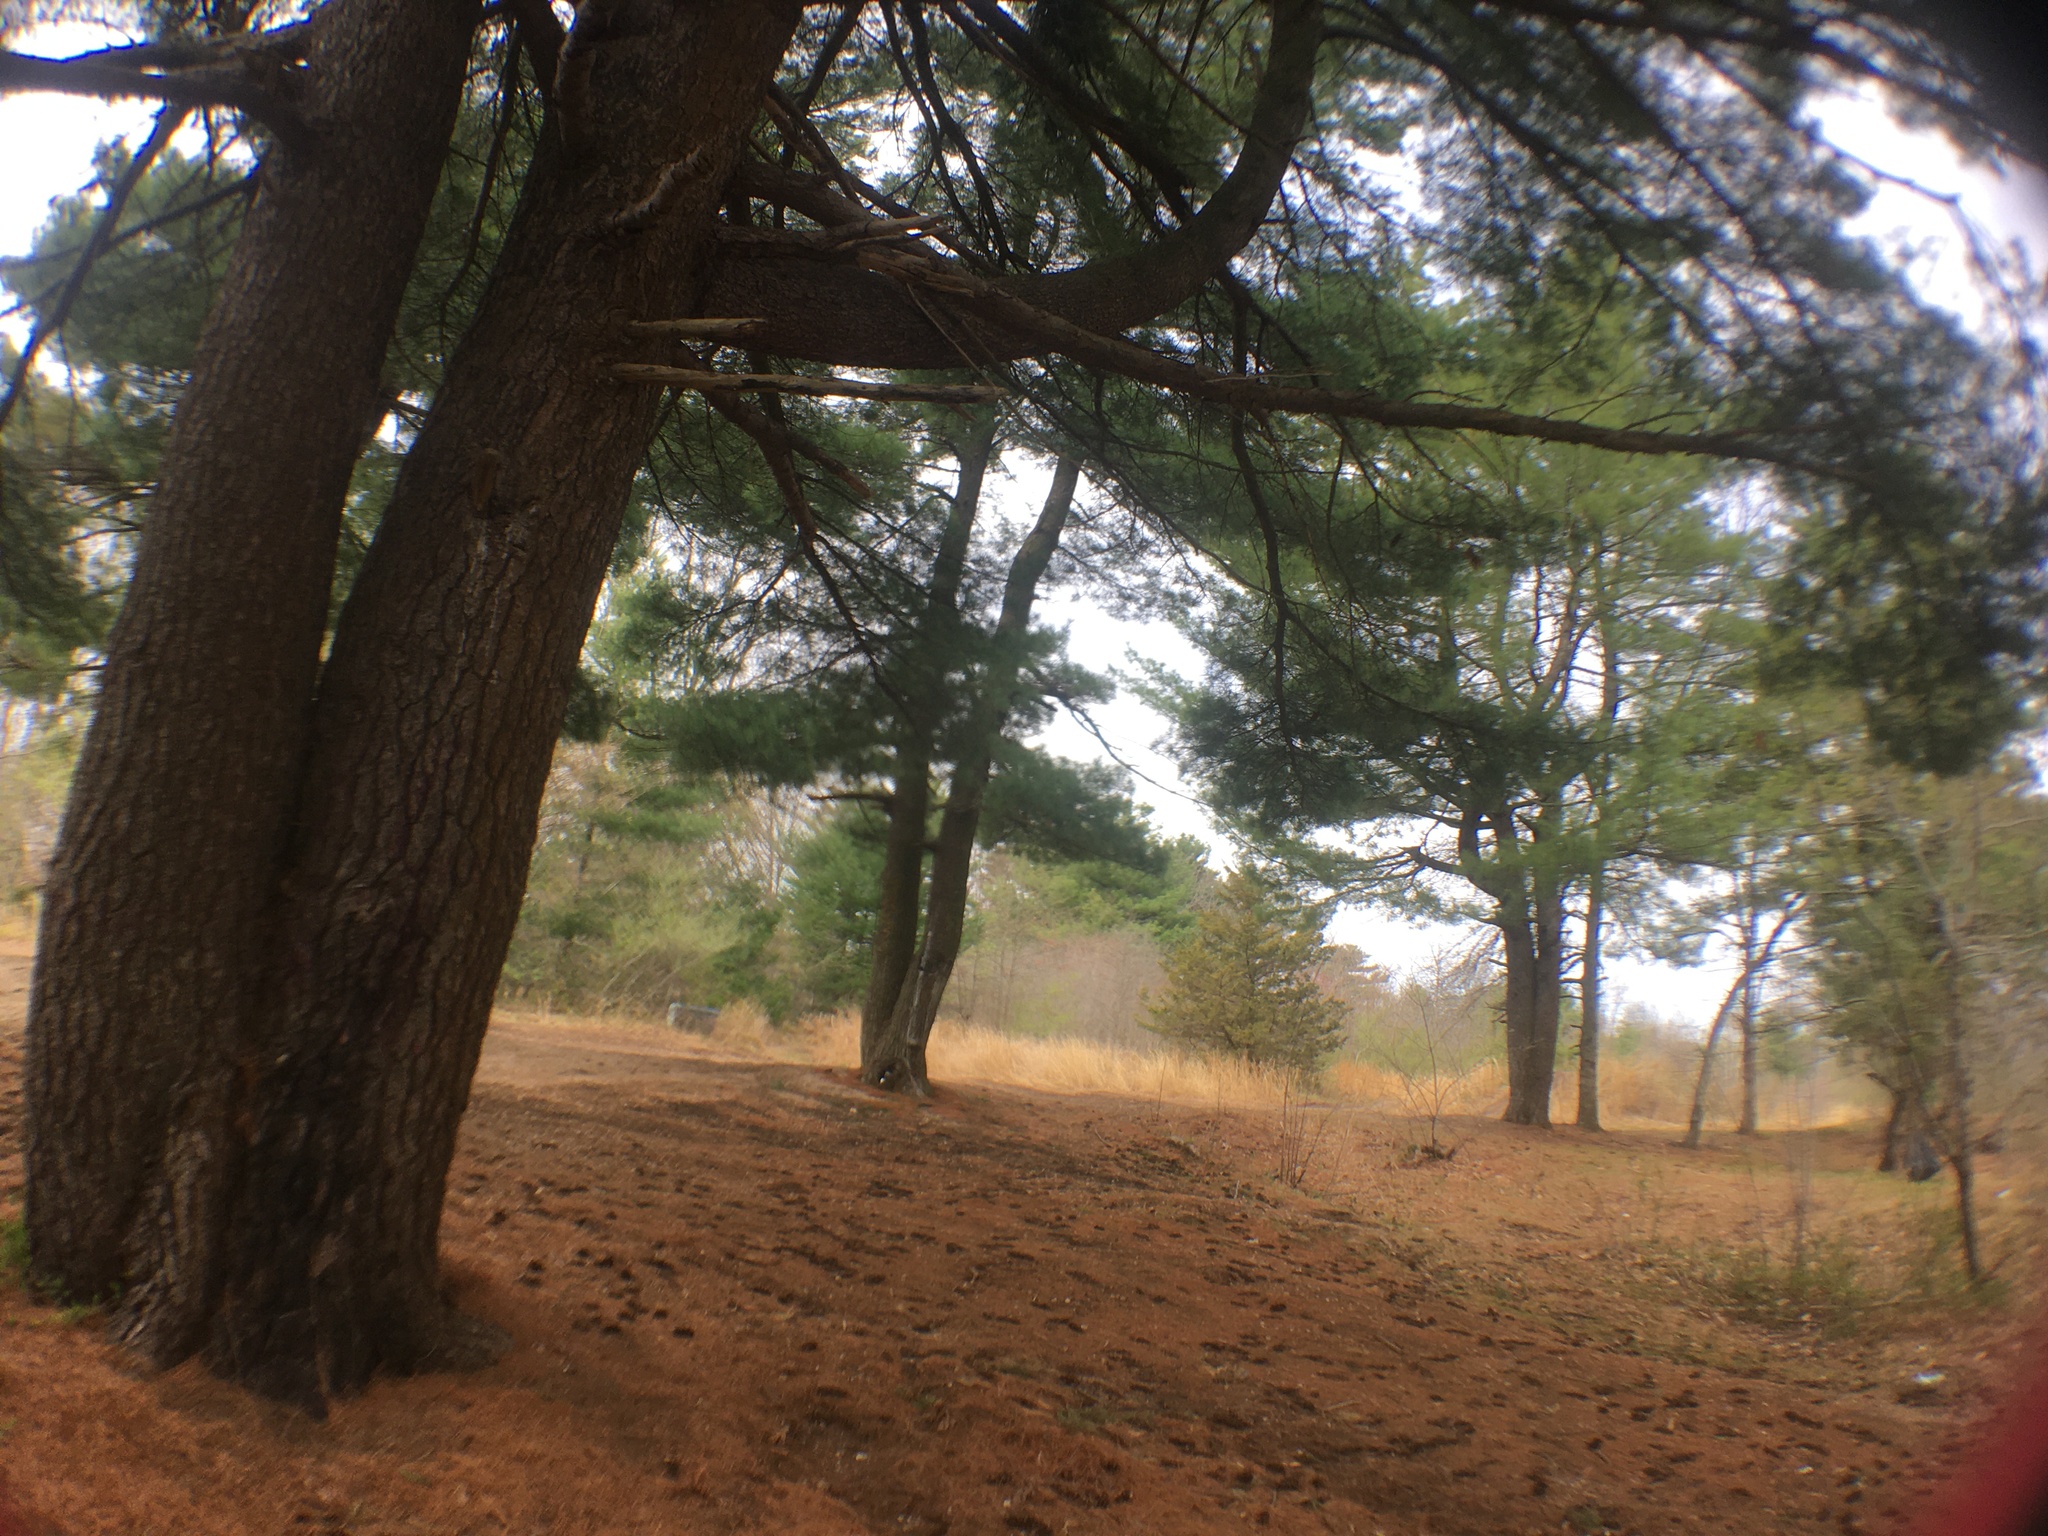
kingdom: Plantae
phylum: Tracheophyta
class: Pinopsida
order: Pinales
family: Pinaceae
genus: Pinus
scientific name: Pinus strobus
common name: Weymouth pine
